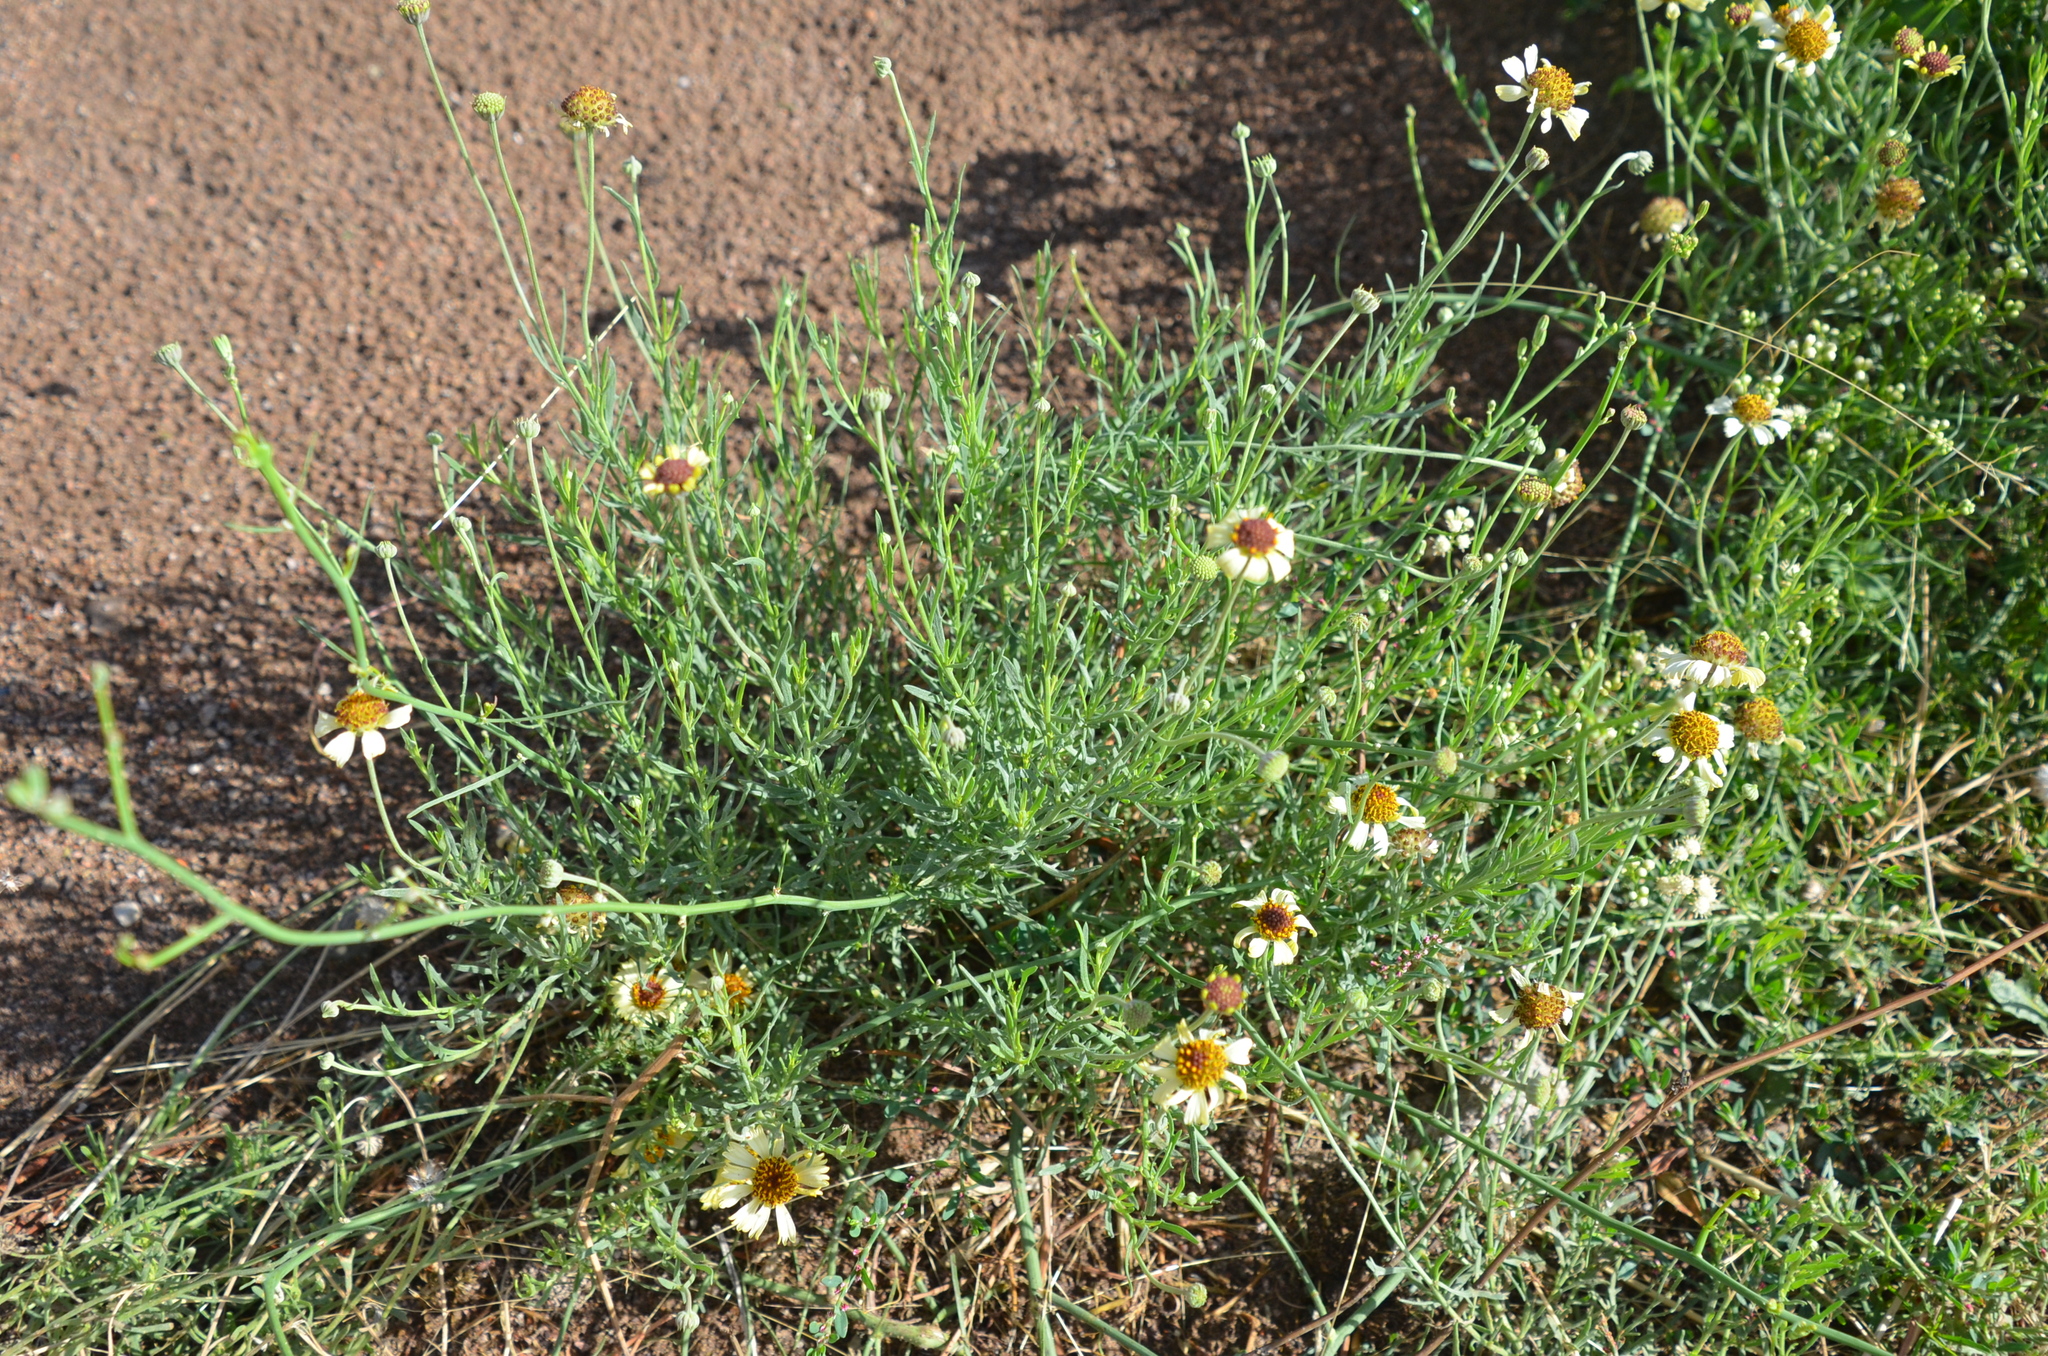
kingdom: Plantae
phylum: Tracheophyta
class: Magnoliopsida
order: Asterales
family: Asteraceae
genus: Helenium
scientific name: Helenium uniflorum
